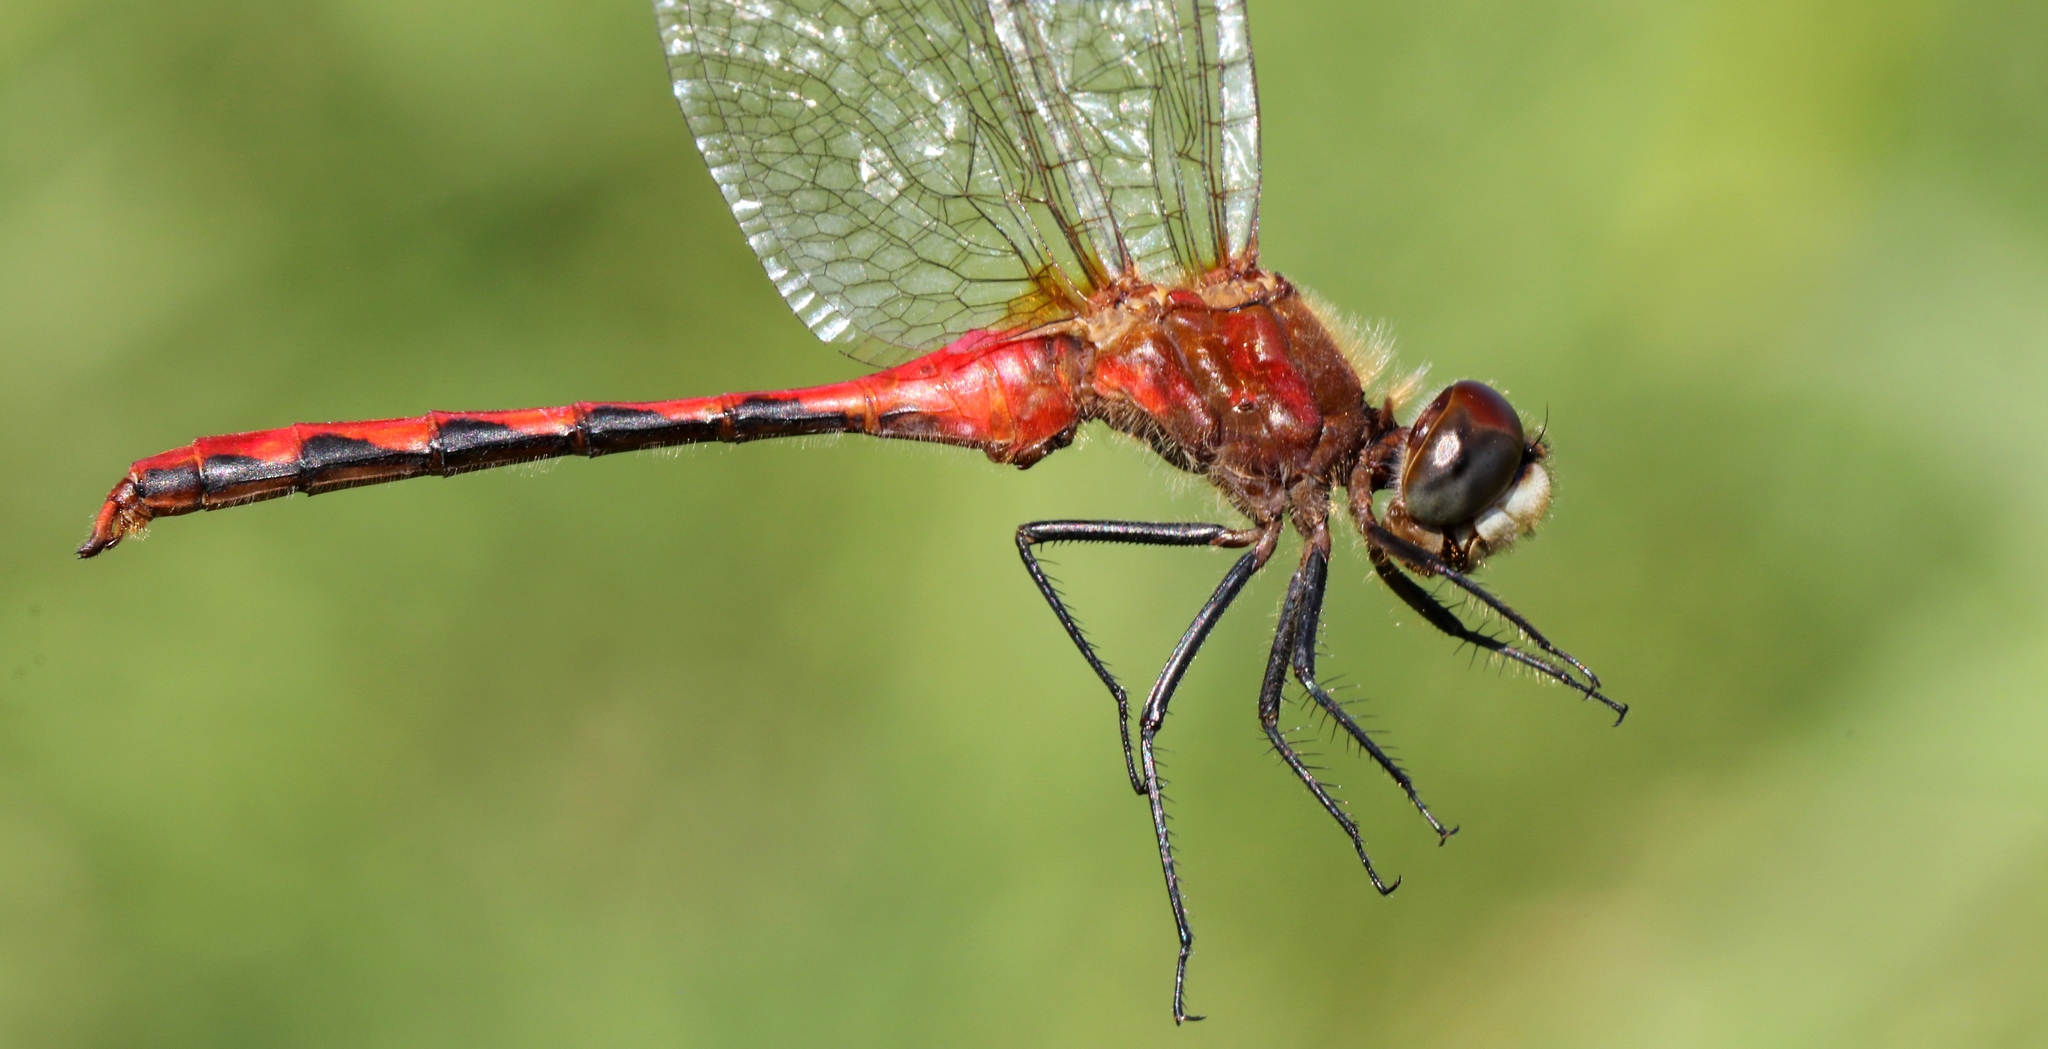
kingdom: Animalia
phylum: Arthropoda
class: Insecta
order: Odonata
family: Libellulidae
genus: Sympetrum
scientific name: Sympetrum obtrusum
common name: White-faced meadowhawk
